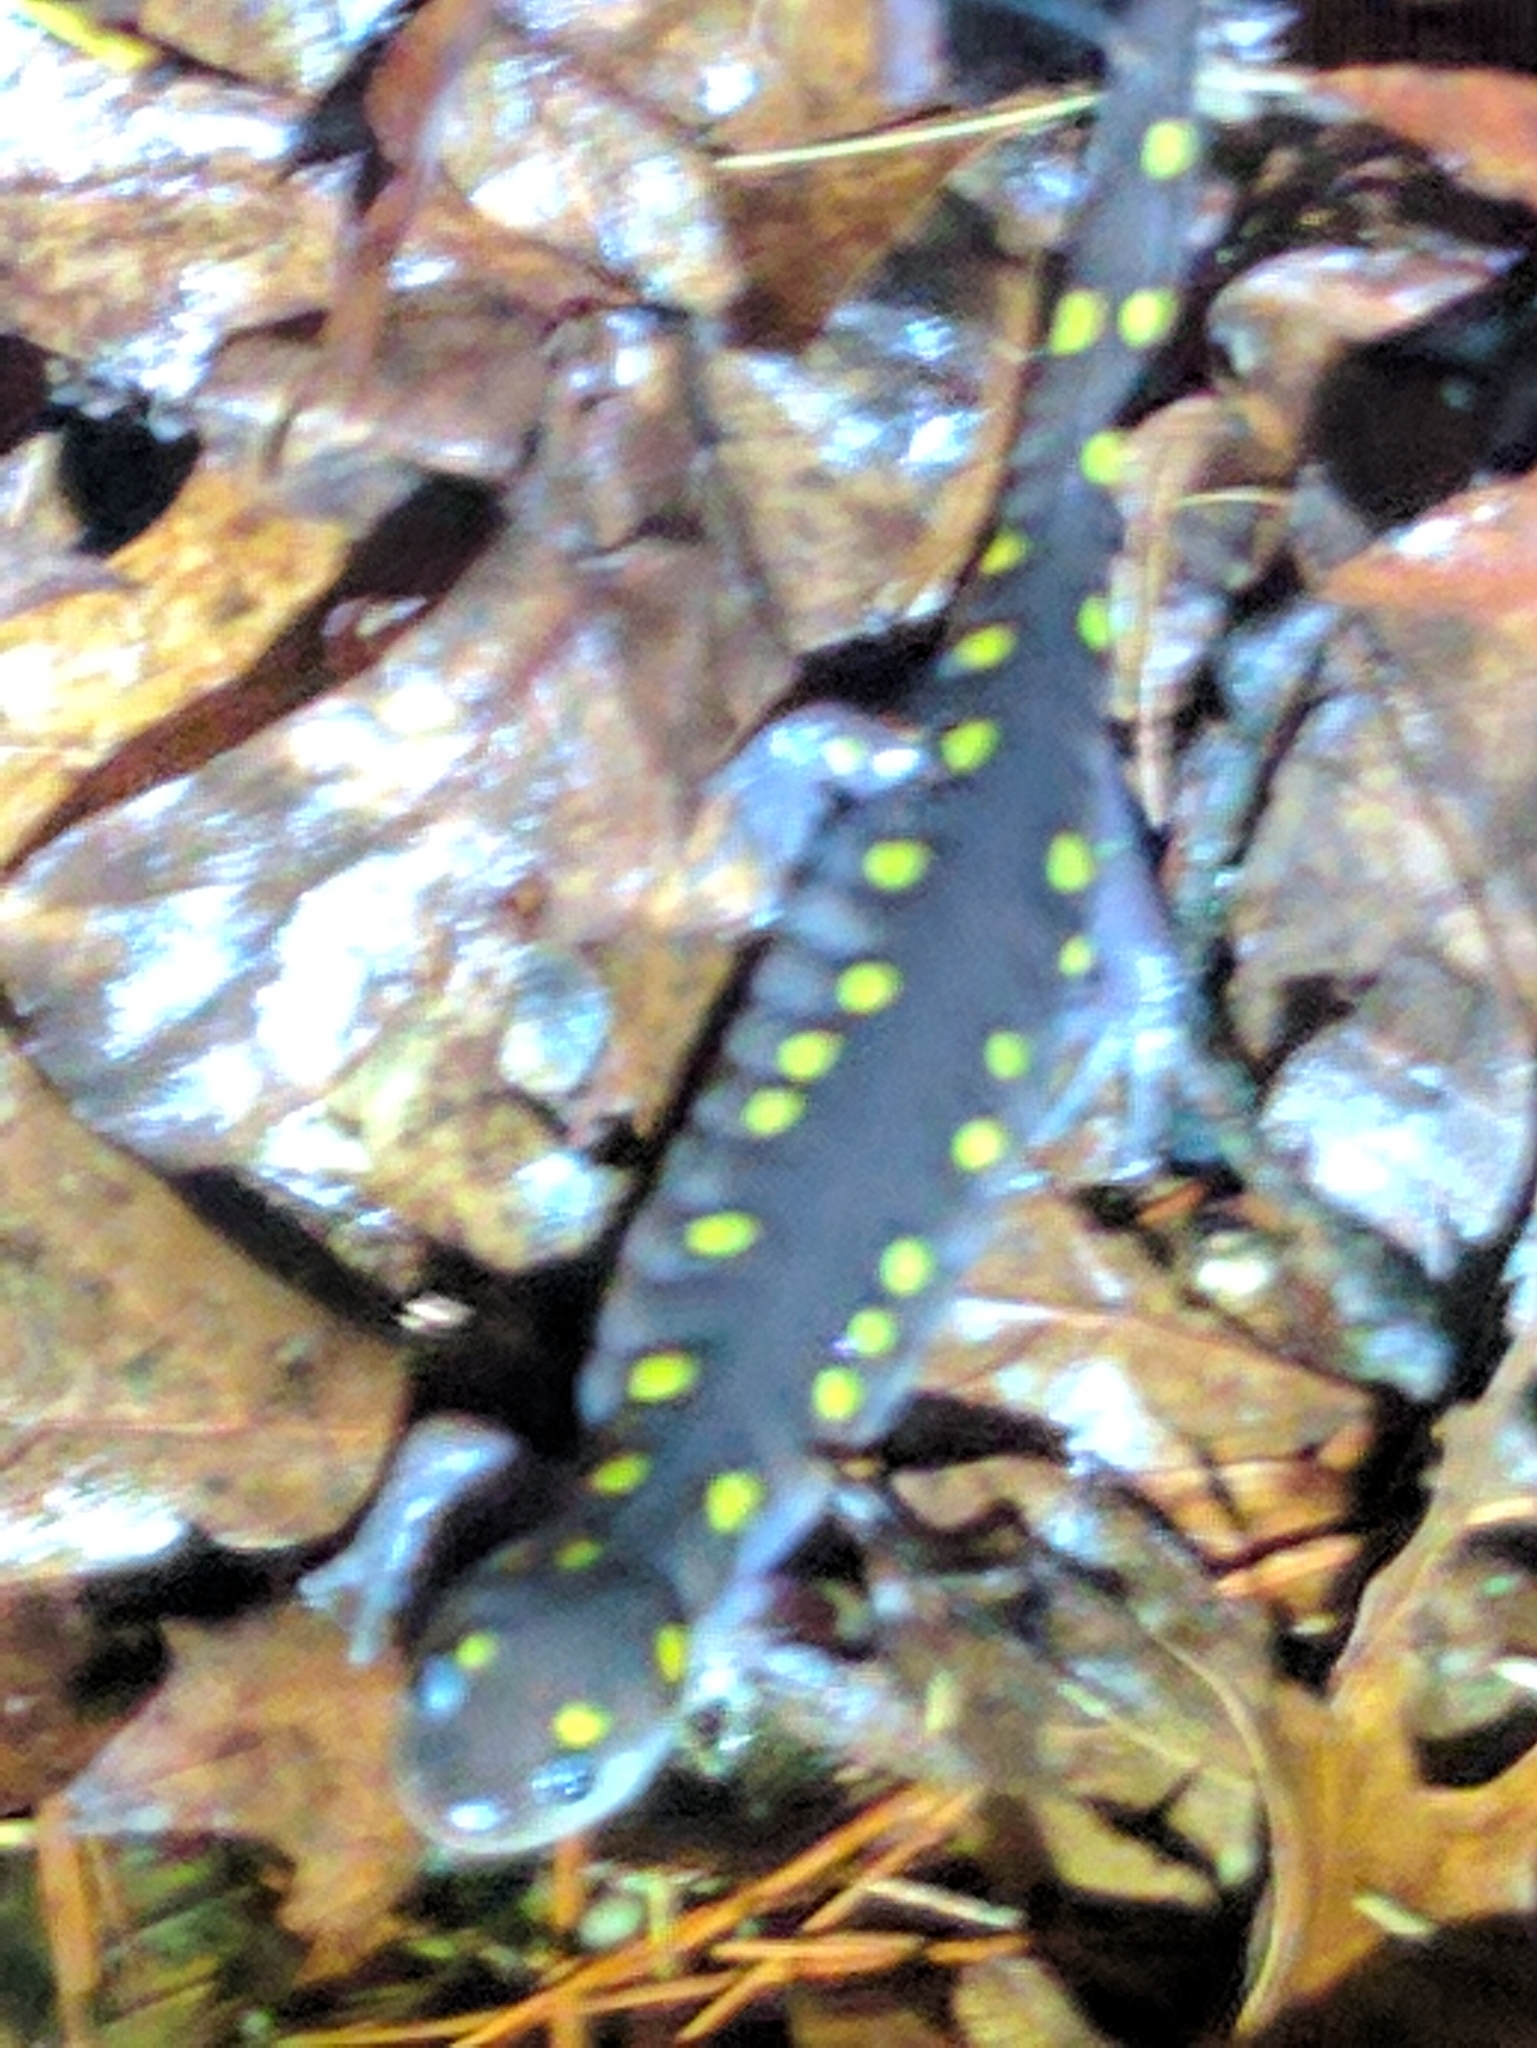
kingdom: Animalia
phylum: Chordata
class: Amphibia
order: Caudata
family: Ambystomatidae
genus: Ambystoma
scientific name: Ambystoma maculatum
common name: Spotted salamander
